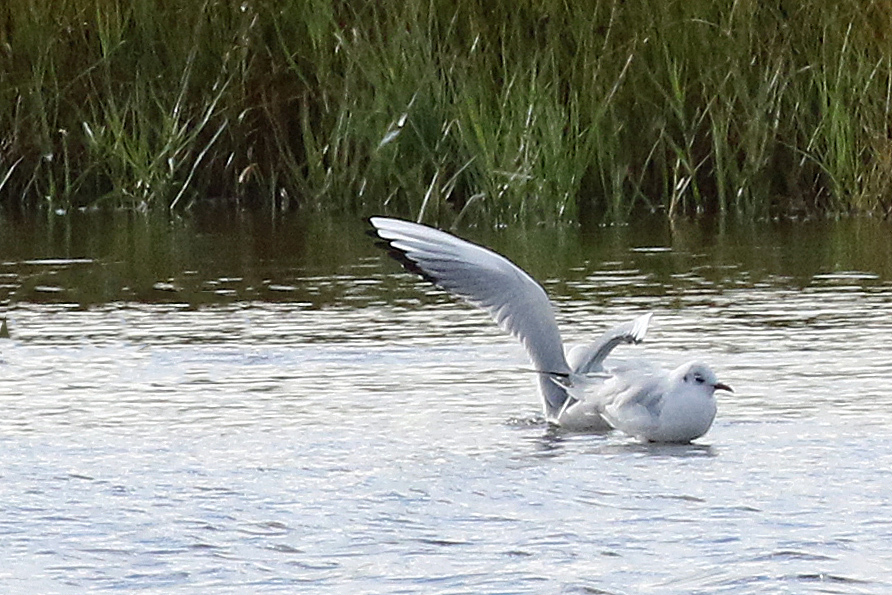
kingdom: Animalia
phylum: Chordata
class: Aves
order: Charadriiformes
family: Laridae
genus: Chroicocephalus
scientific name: Chroicocephalus ridibundus
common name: Black-headed gull
